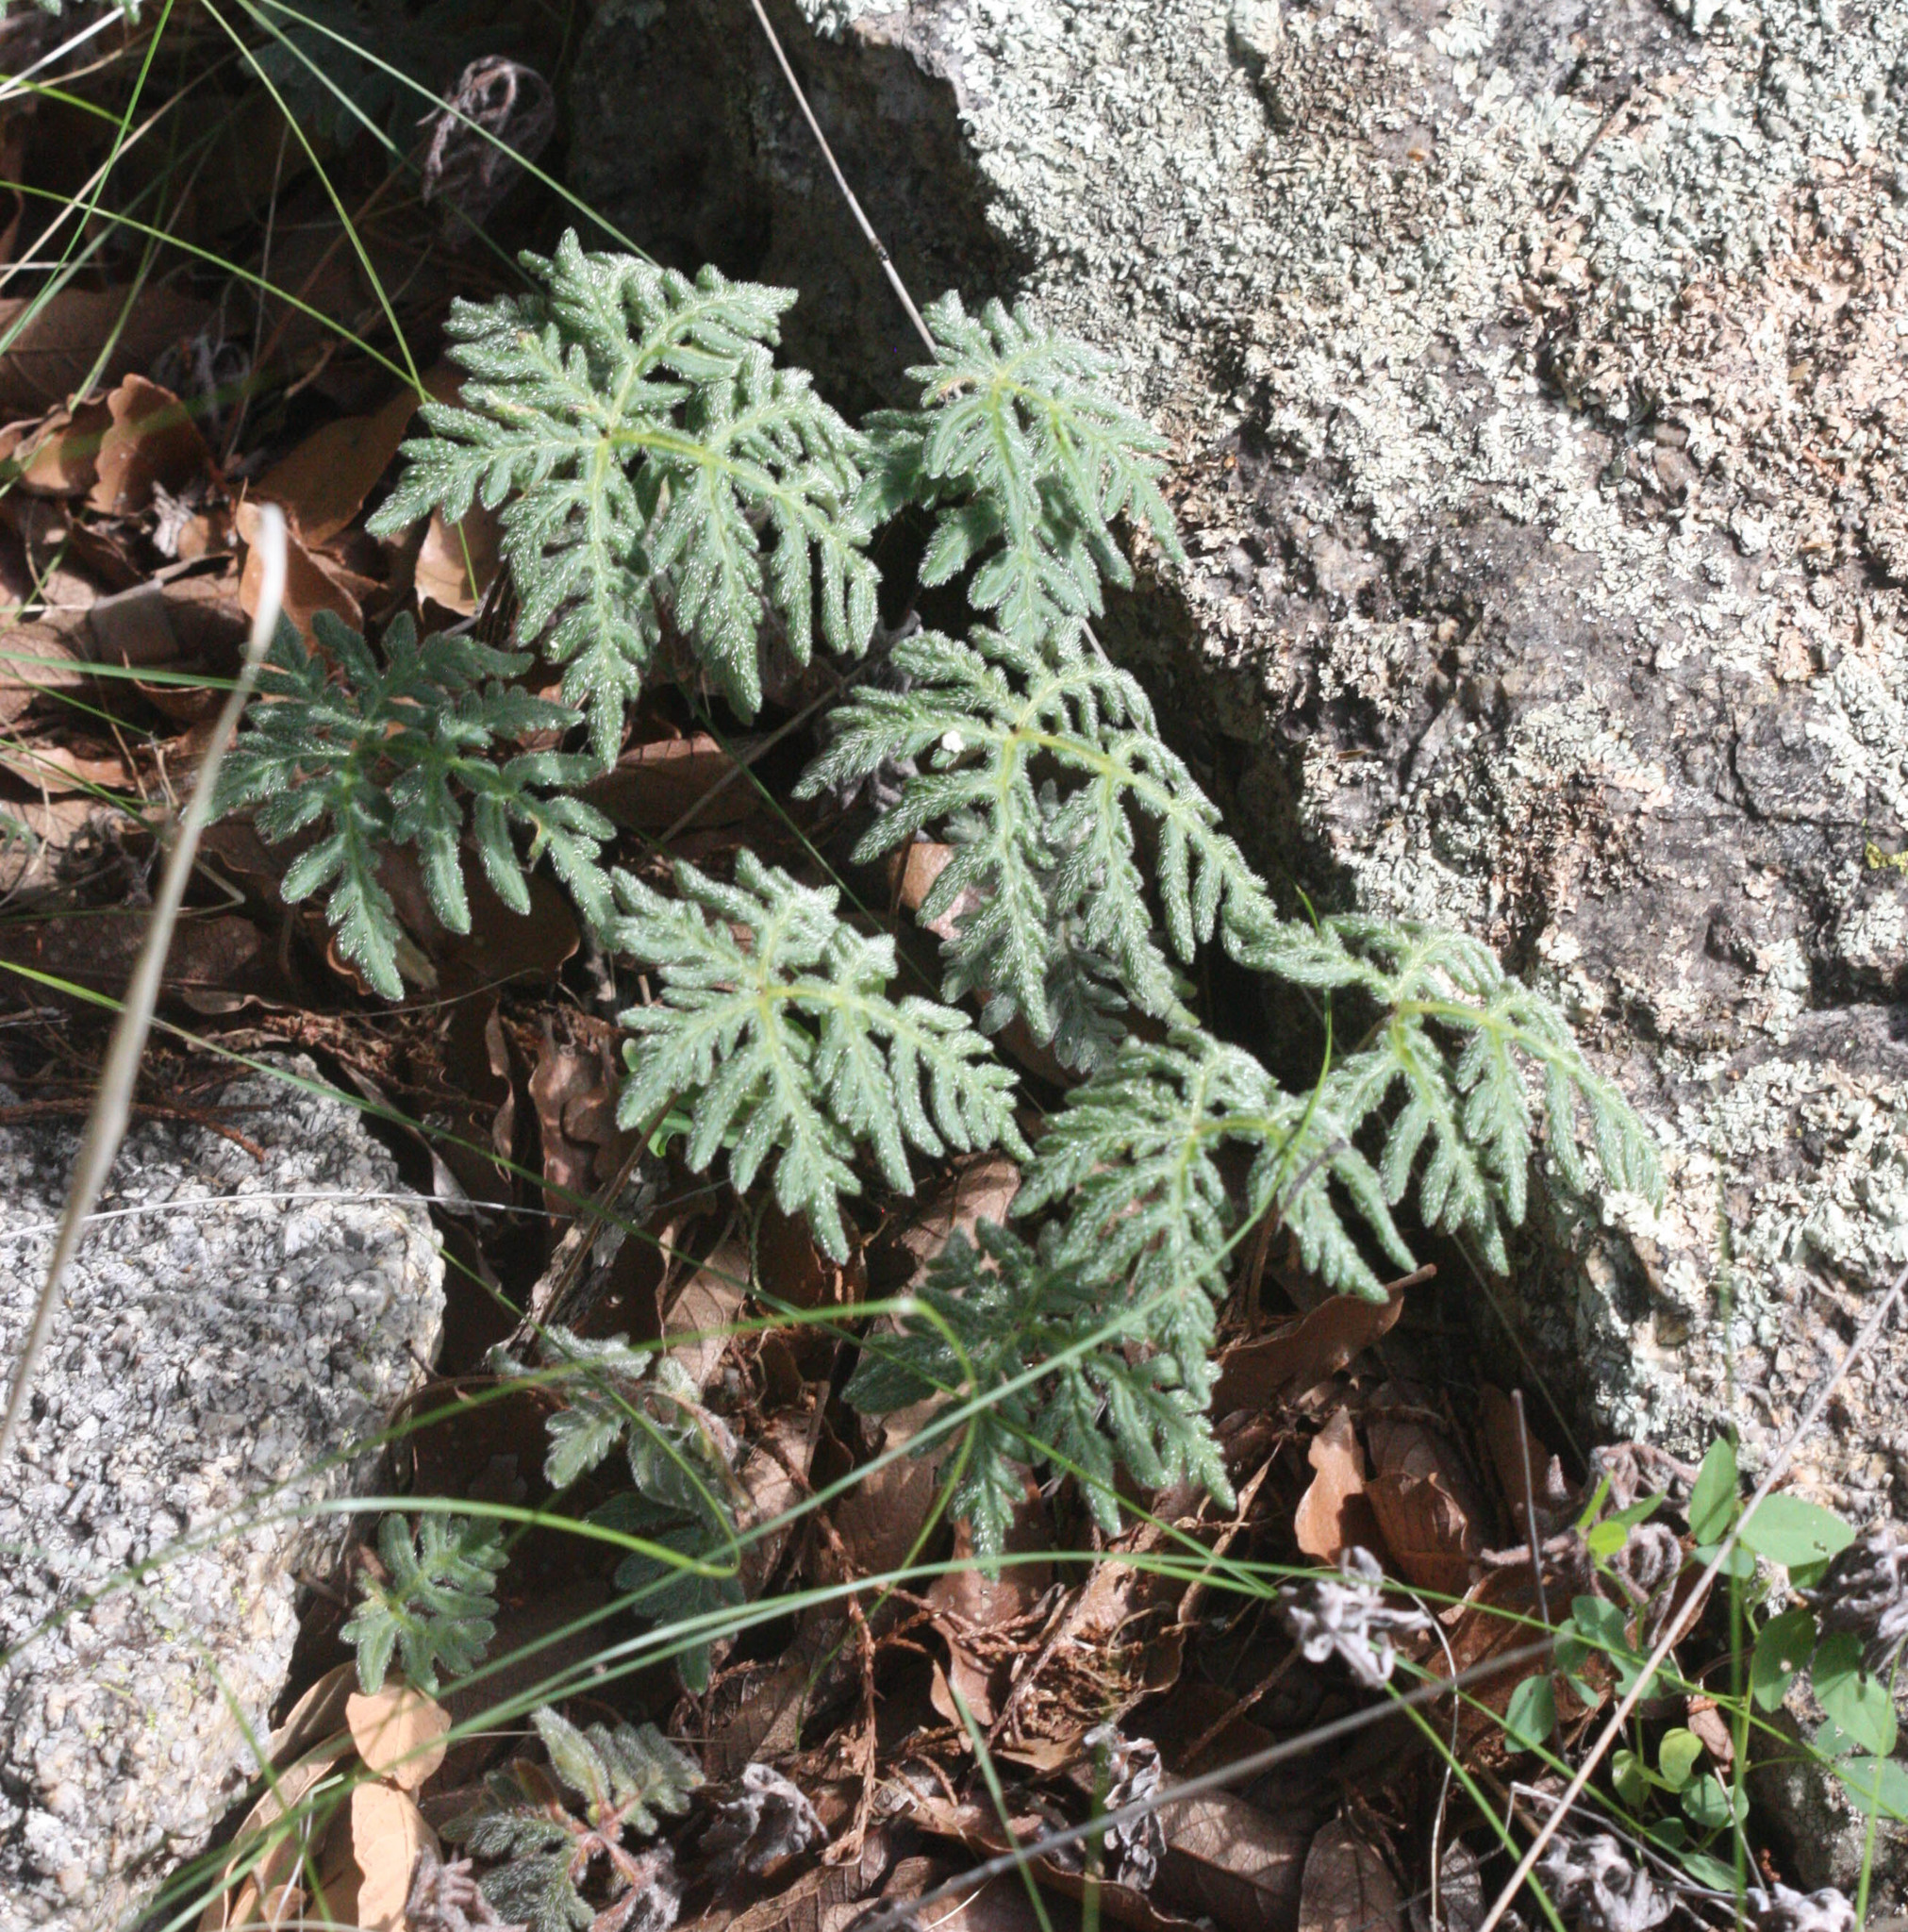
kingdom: Plantae
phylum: Tracheophyta
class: Polypodiopsida
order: Polypodiales
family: Pteridaceae
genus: Bommeria
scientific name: Bommeria hispida
